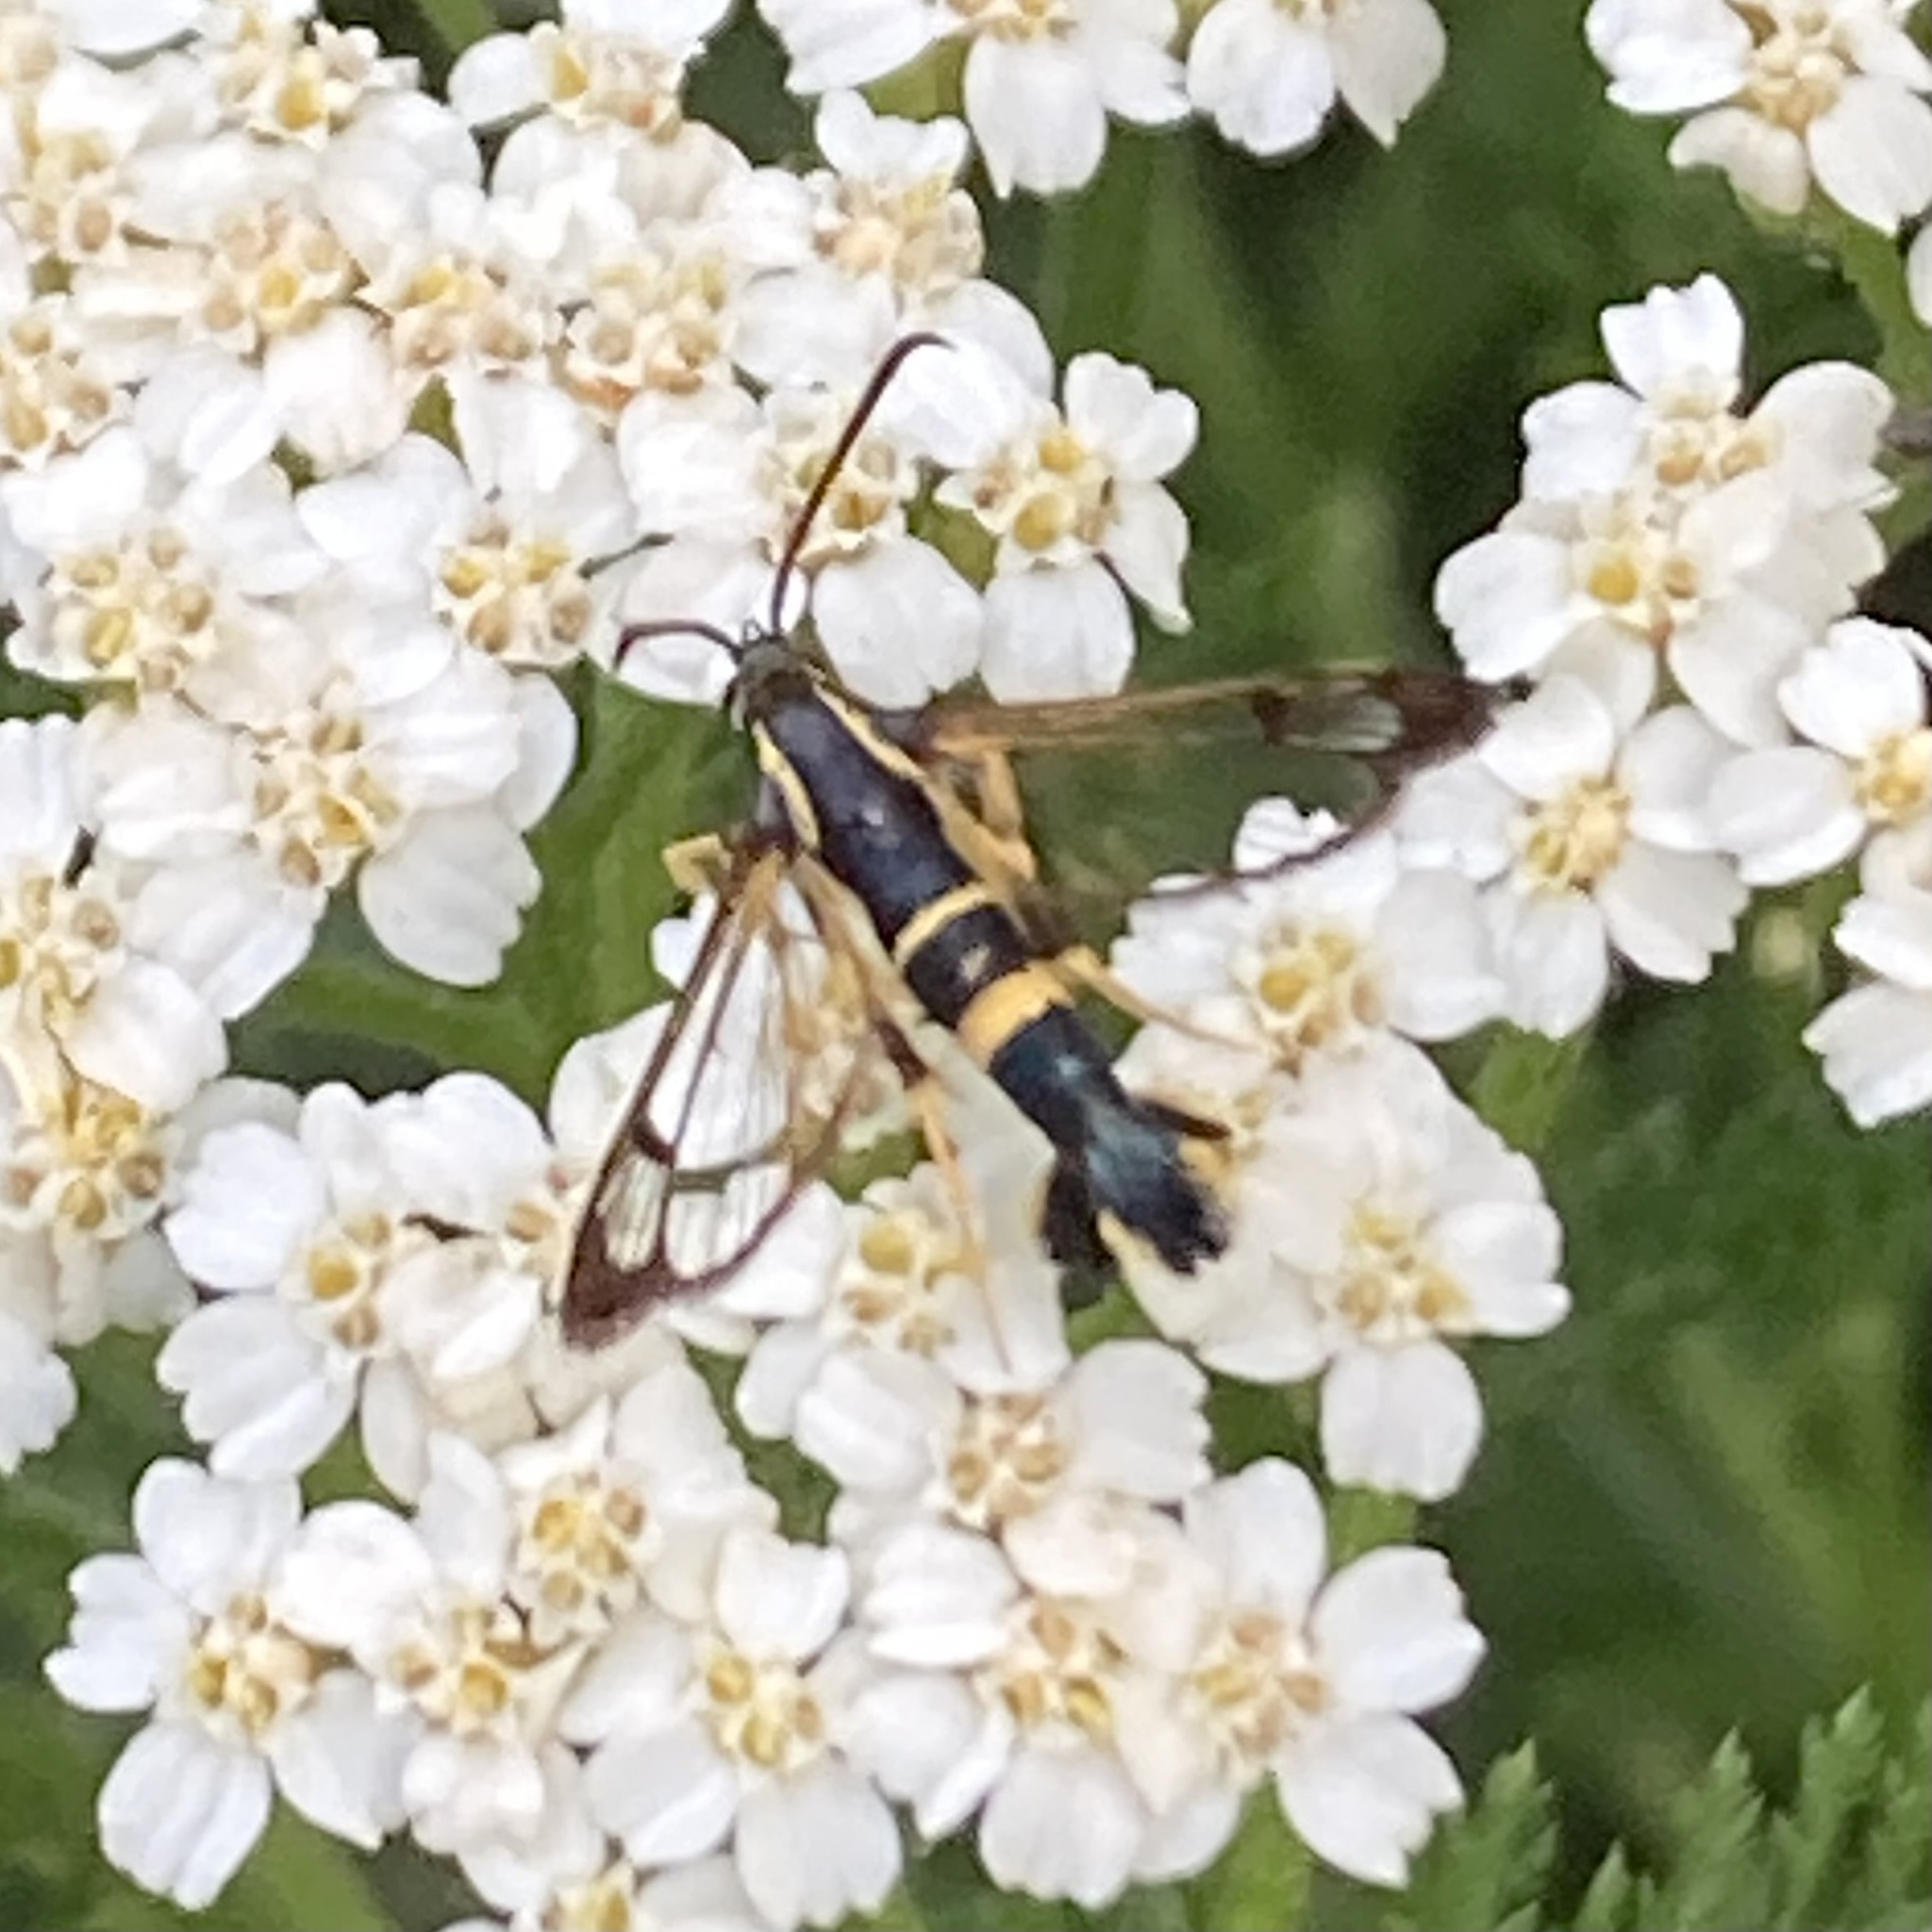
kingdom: Animalia
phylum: Arthropoda
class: Insecta
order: Lepidoptera
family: Sesiidae
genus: Synanthedon
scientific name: Synanthedon scitula
